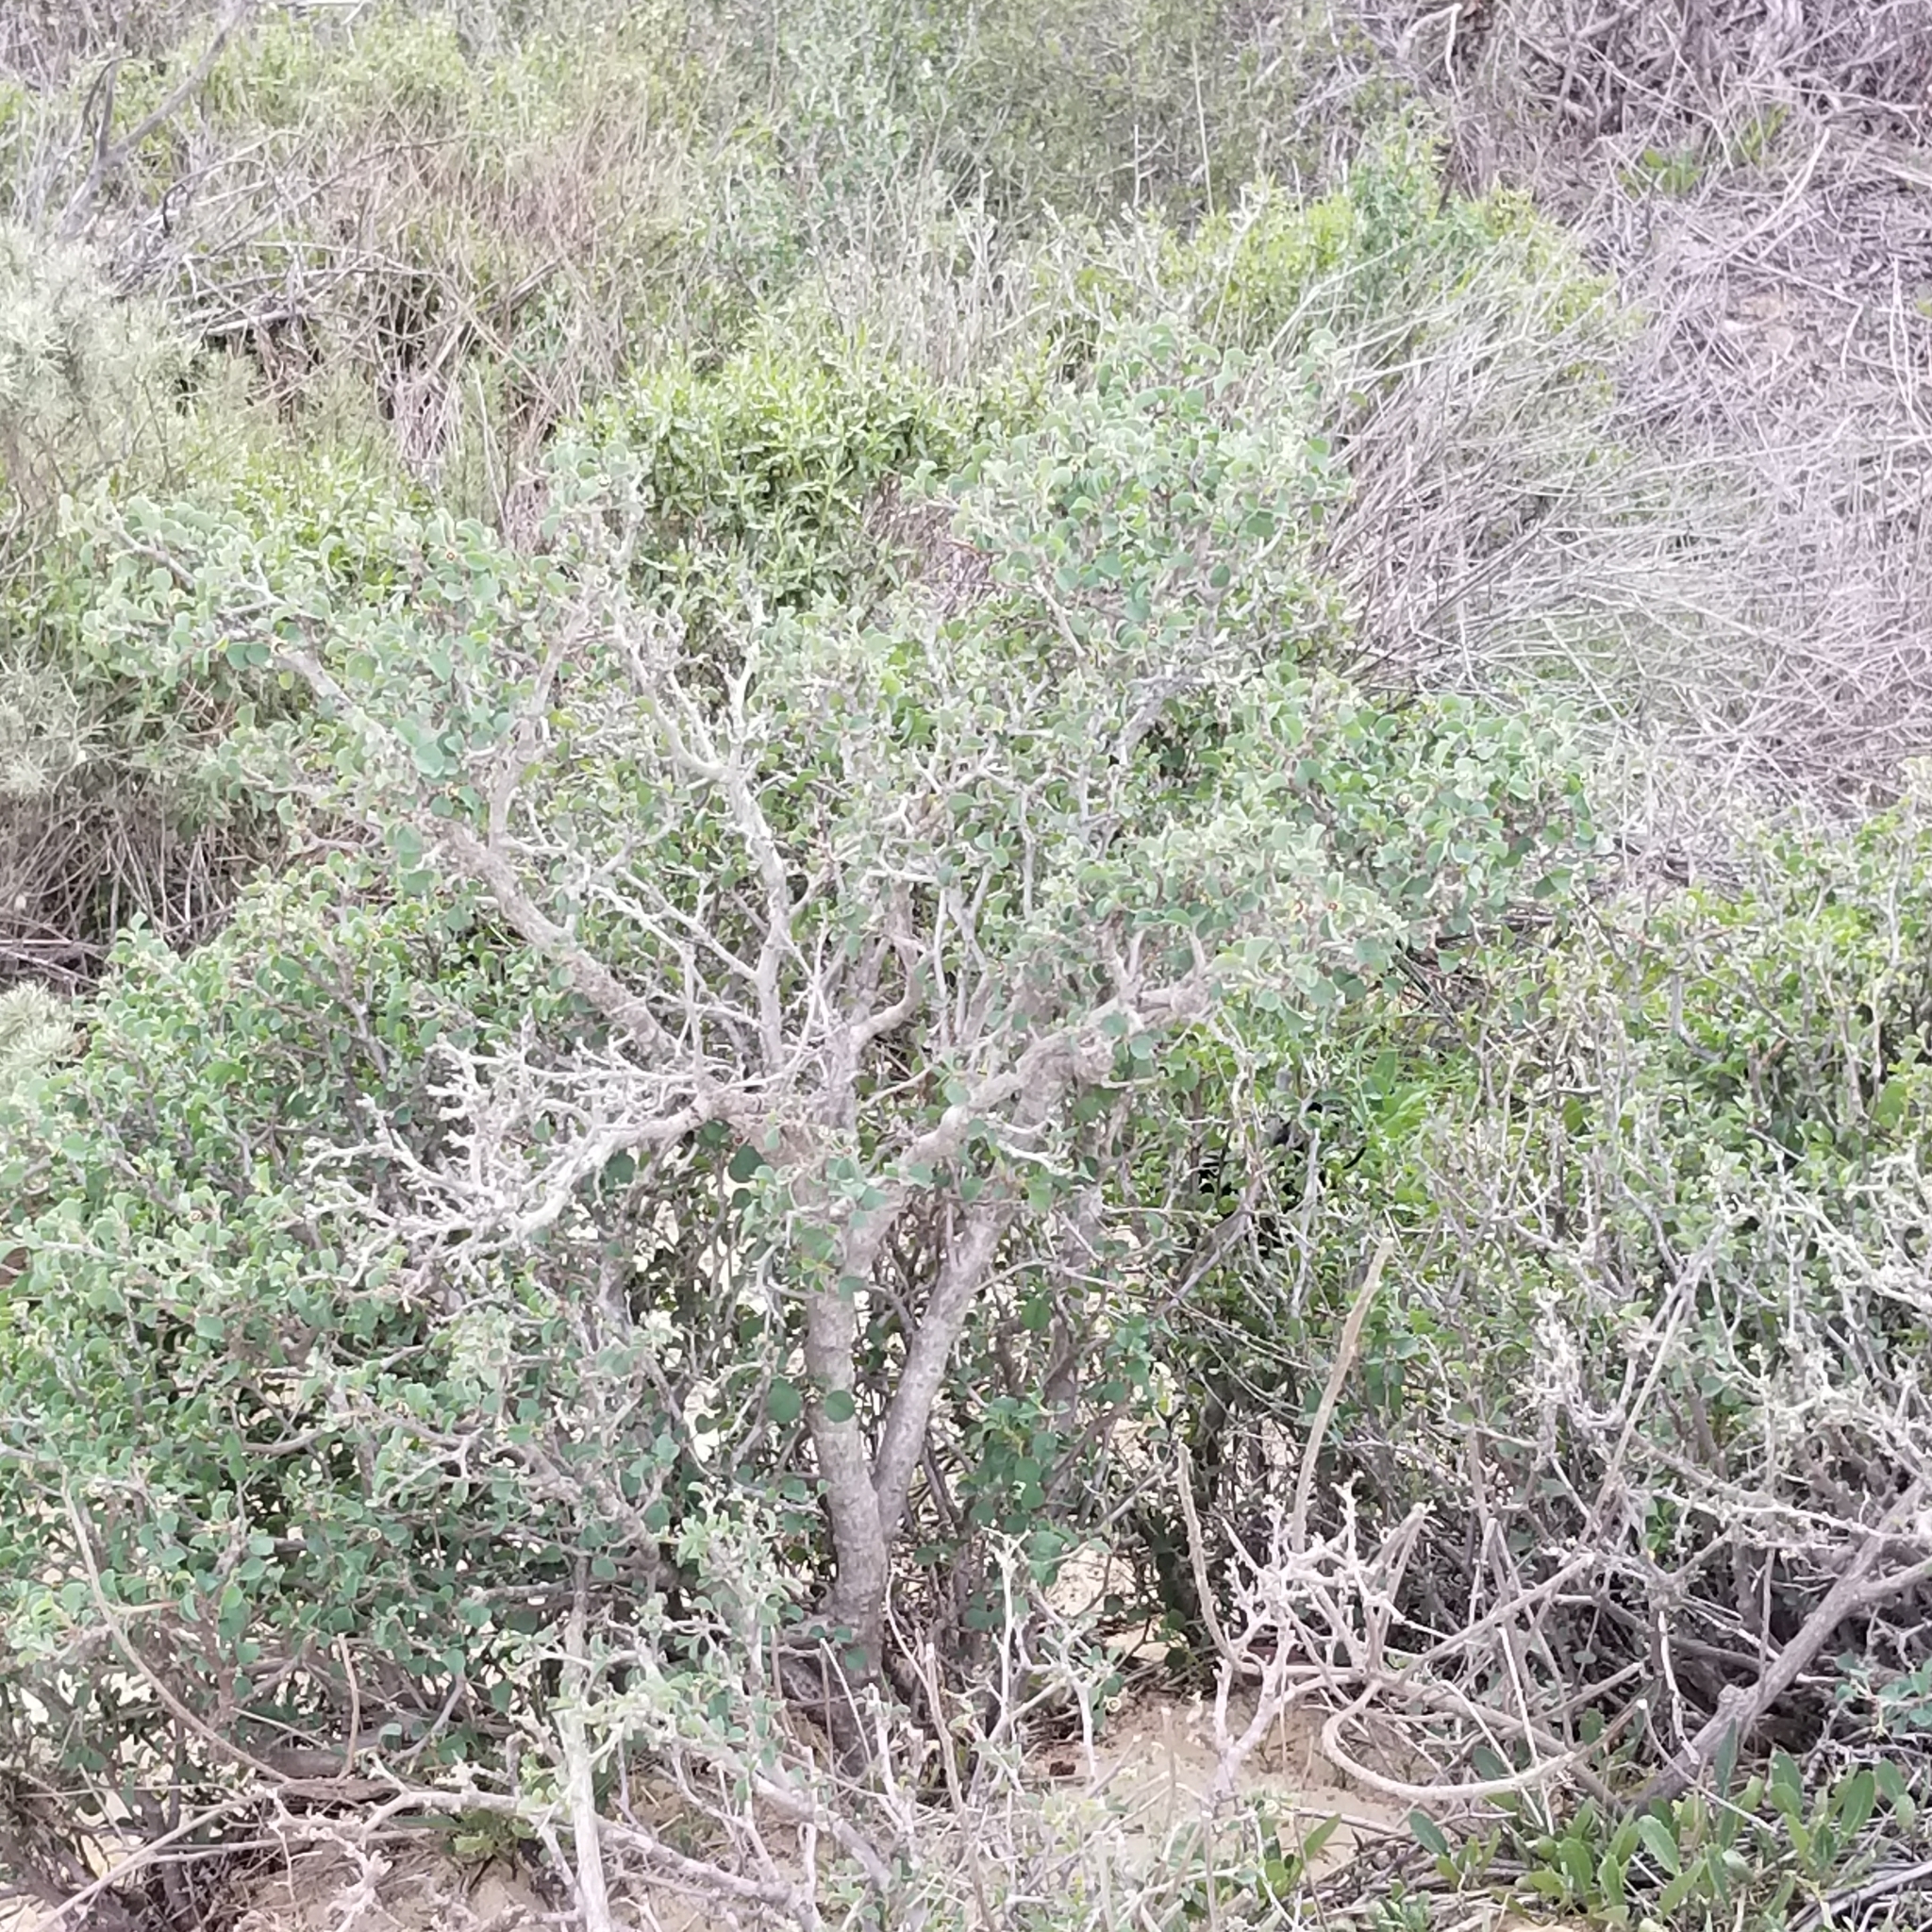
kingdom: Plantae
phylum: Tracheophyta
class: Magnoliopsida
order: Malpighiales
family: Euphorbiaceae
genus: Euphorbia
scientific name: Euphorbia misera
